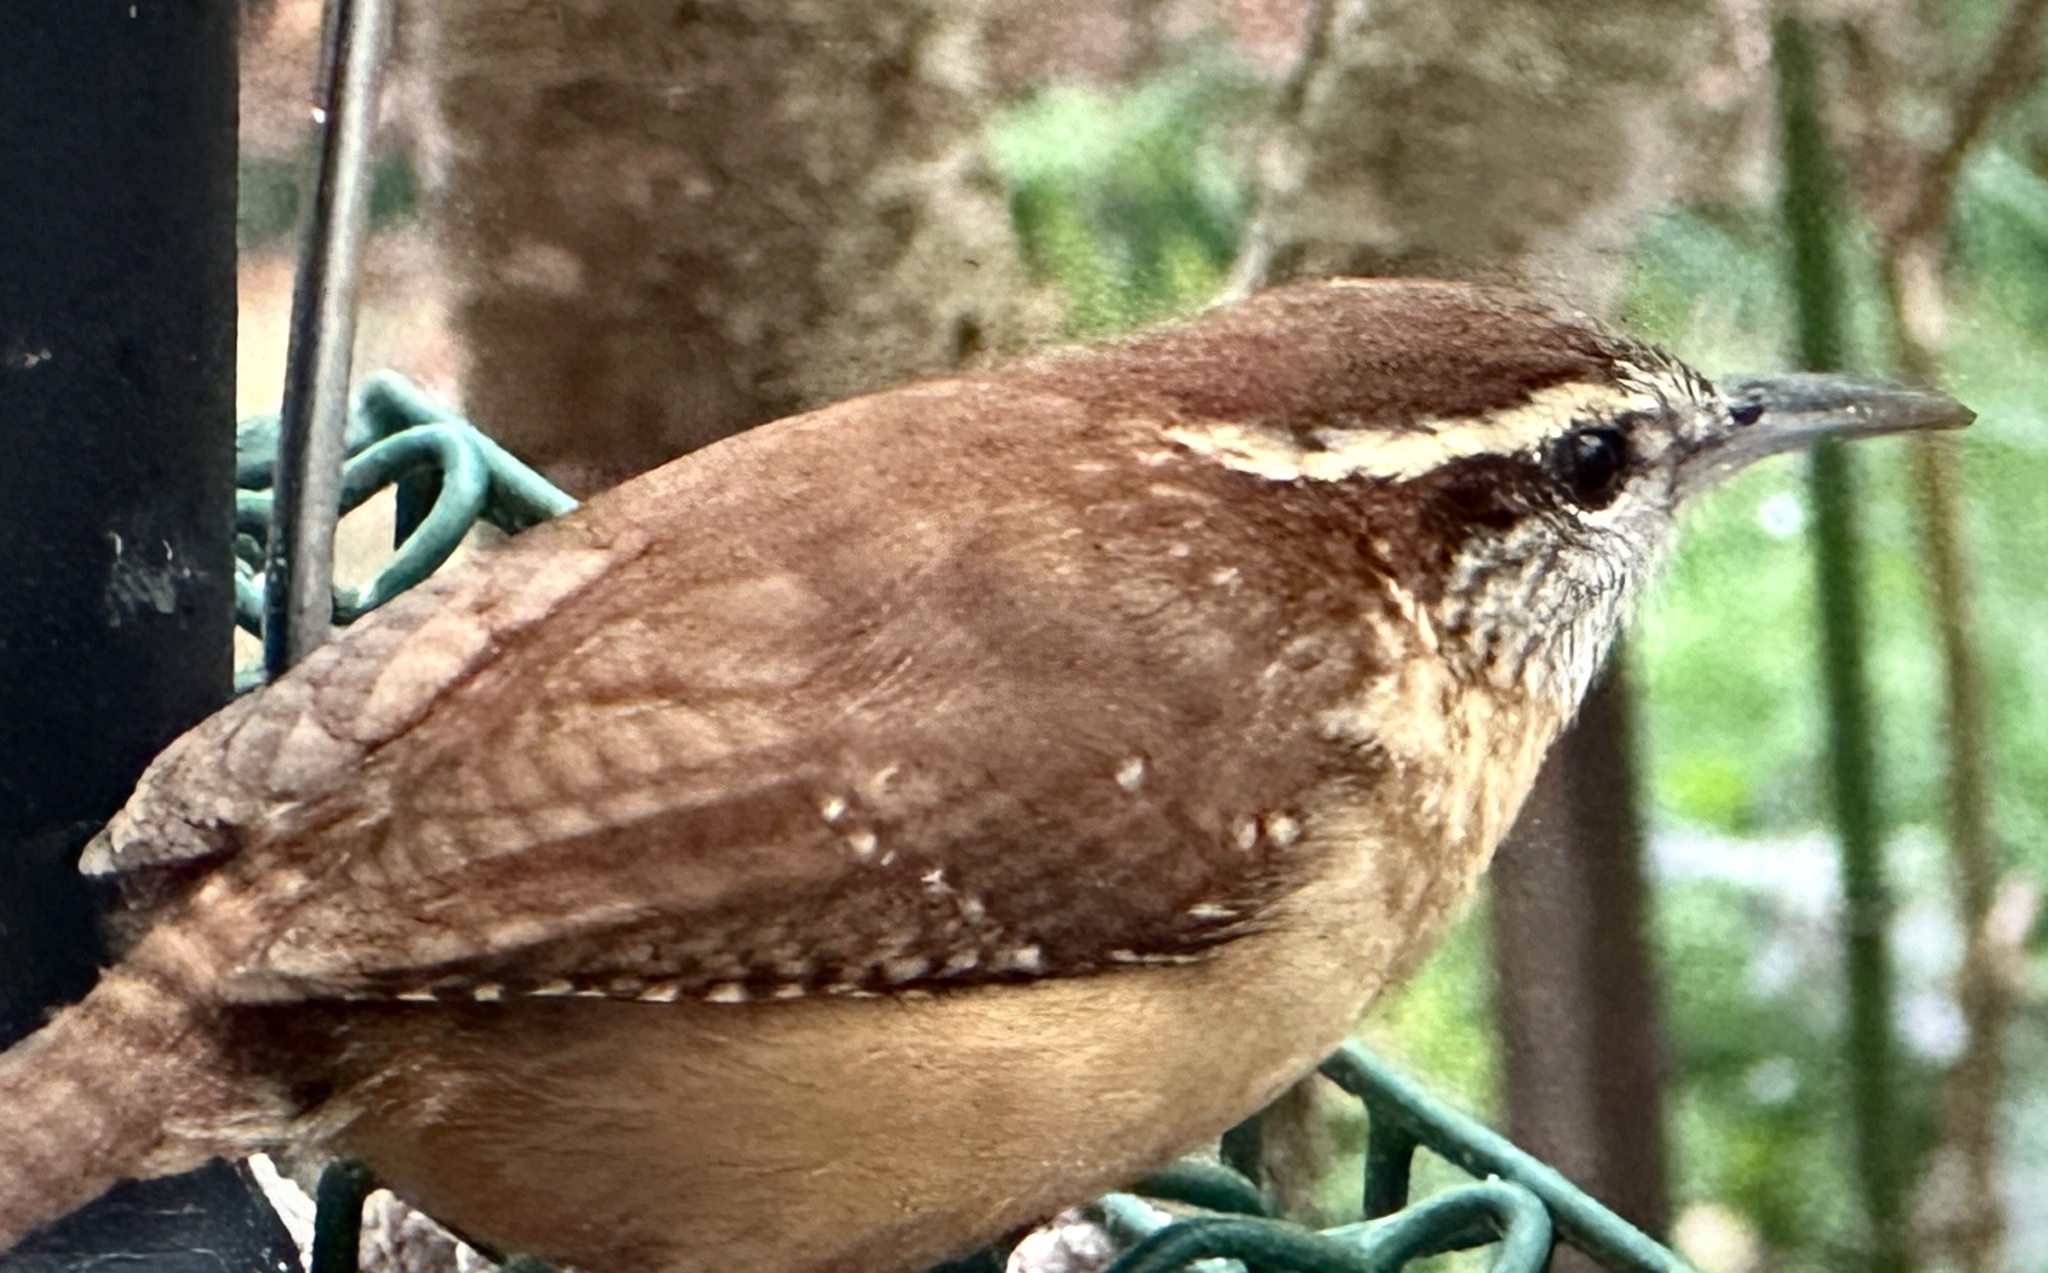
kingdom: Animalia
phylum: Chordata
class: Aves
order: Passeriformes
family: Troglodytidae
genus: Thryothorus
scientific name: Thryothorus ludovicianus
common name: Carolina wren
